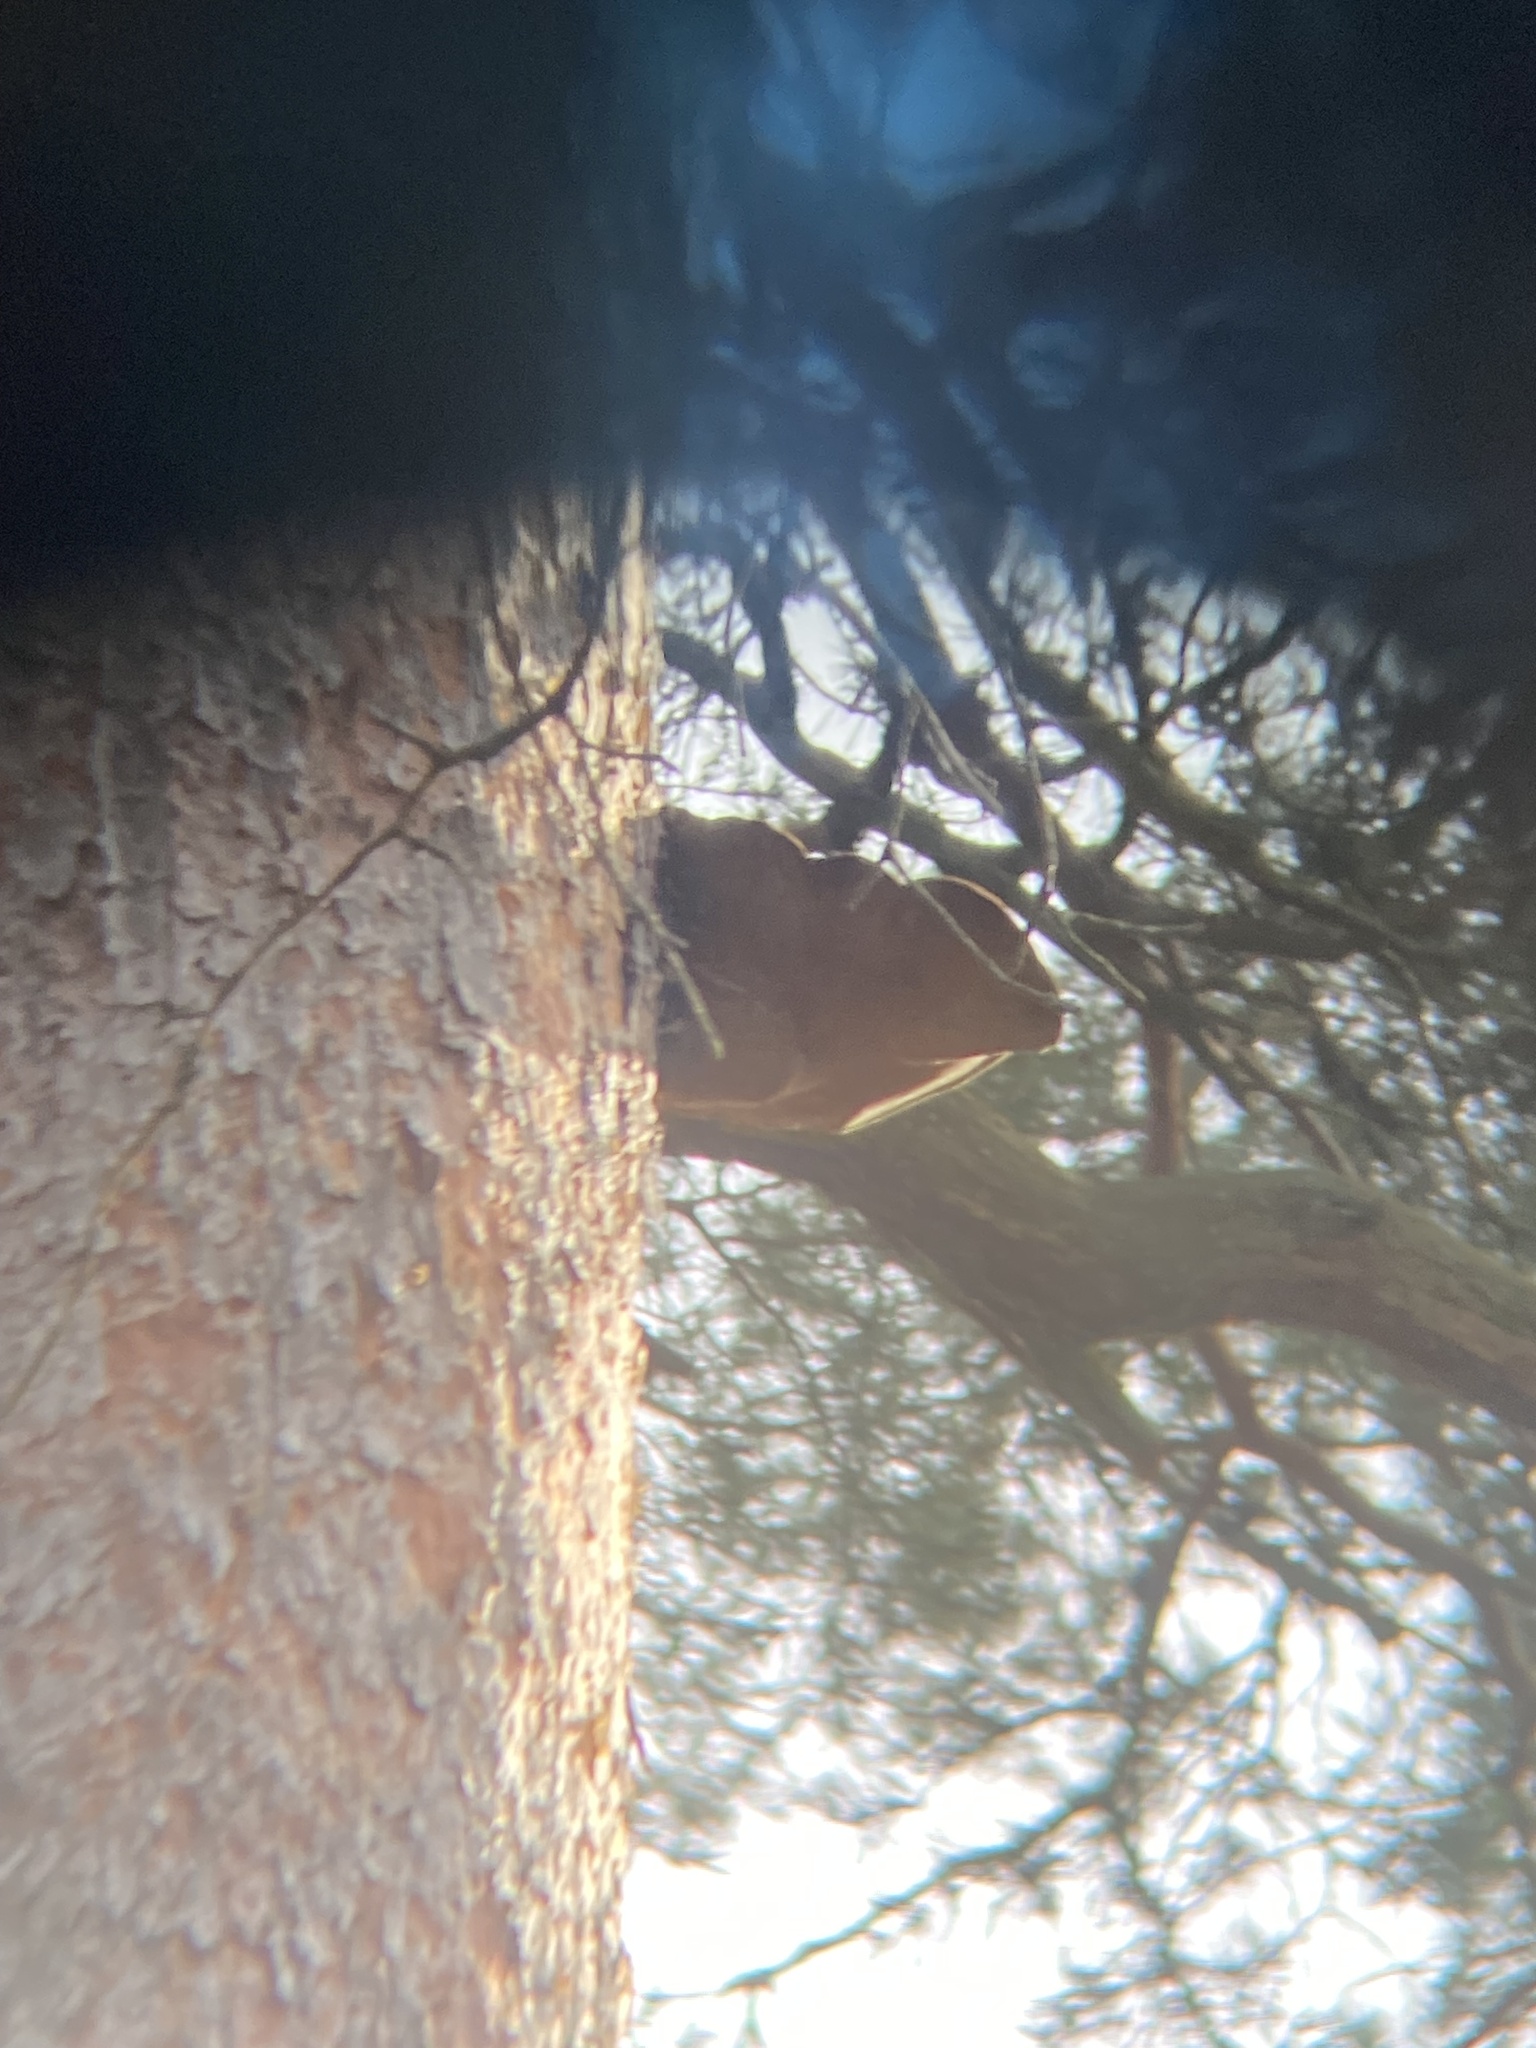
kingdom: Fungi
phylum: Basidiomycota
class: Agaricomycetes
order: Hymenochaetales
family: Hymenochaetaceae
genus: Porodaedalea
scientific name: Porodaedalea pini
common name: Pine bracket
